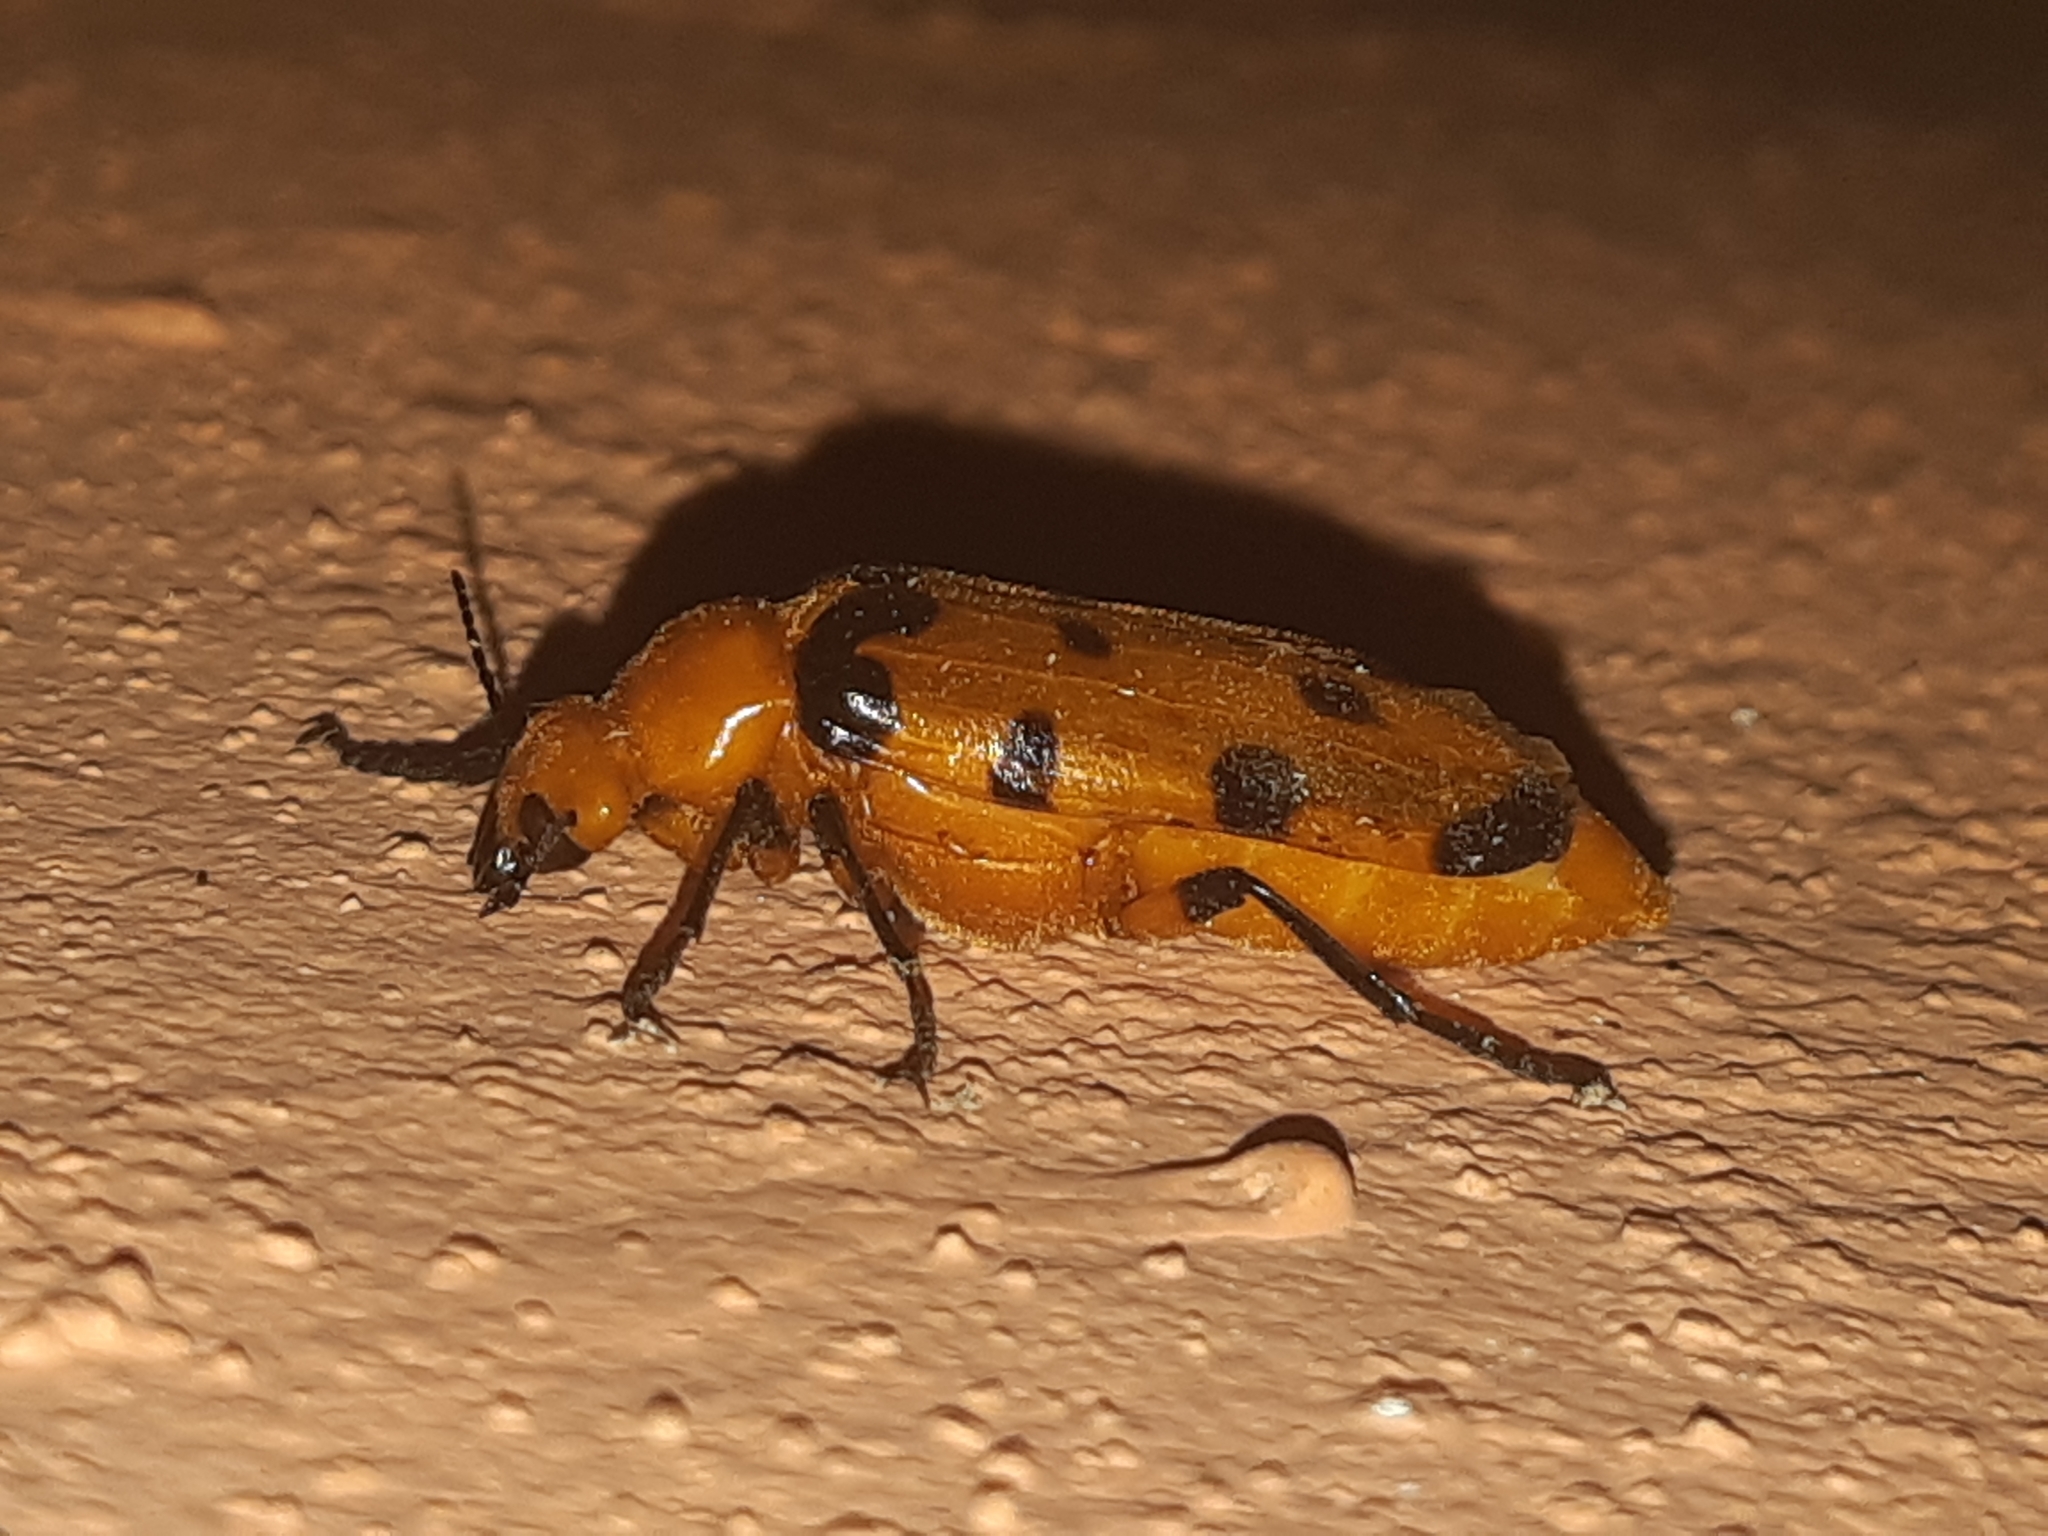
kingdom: Animalia
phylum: Arthropoda
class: Insecta
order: Coleoptera
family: Meloidae
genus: Cissites
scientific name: Cissites maculata
